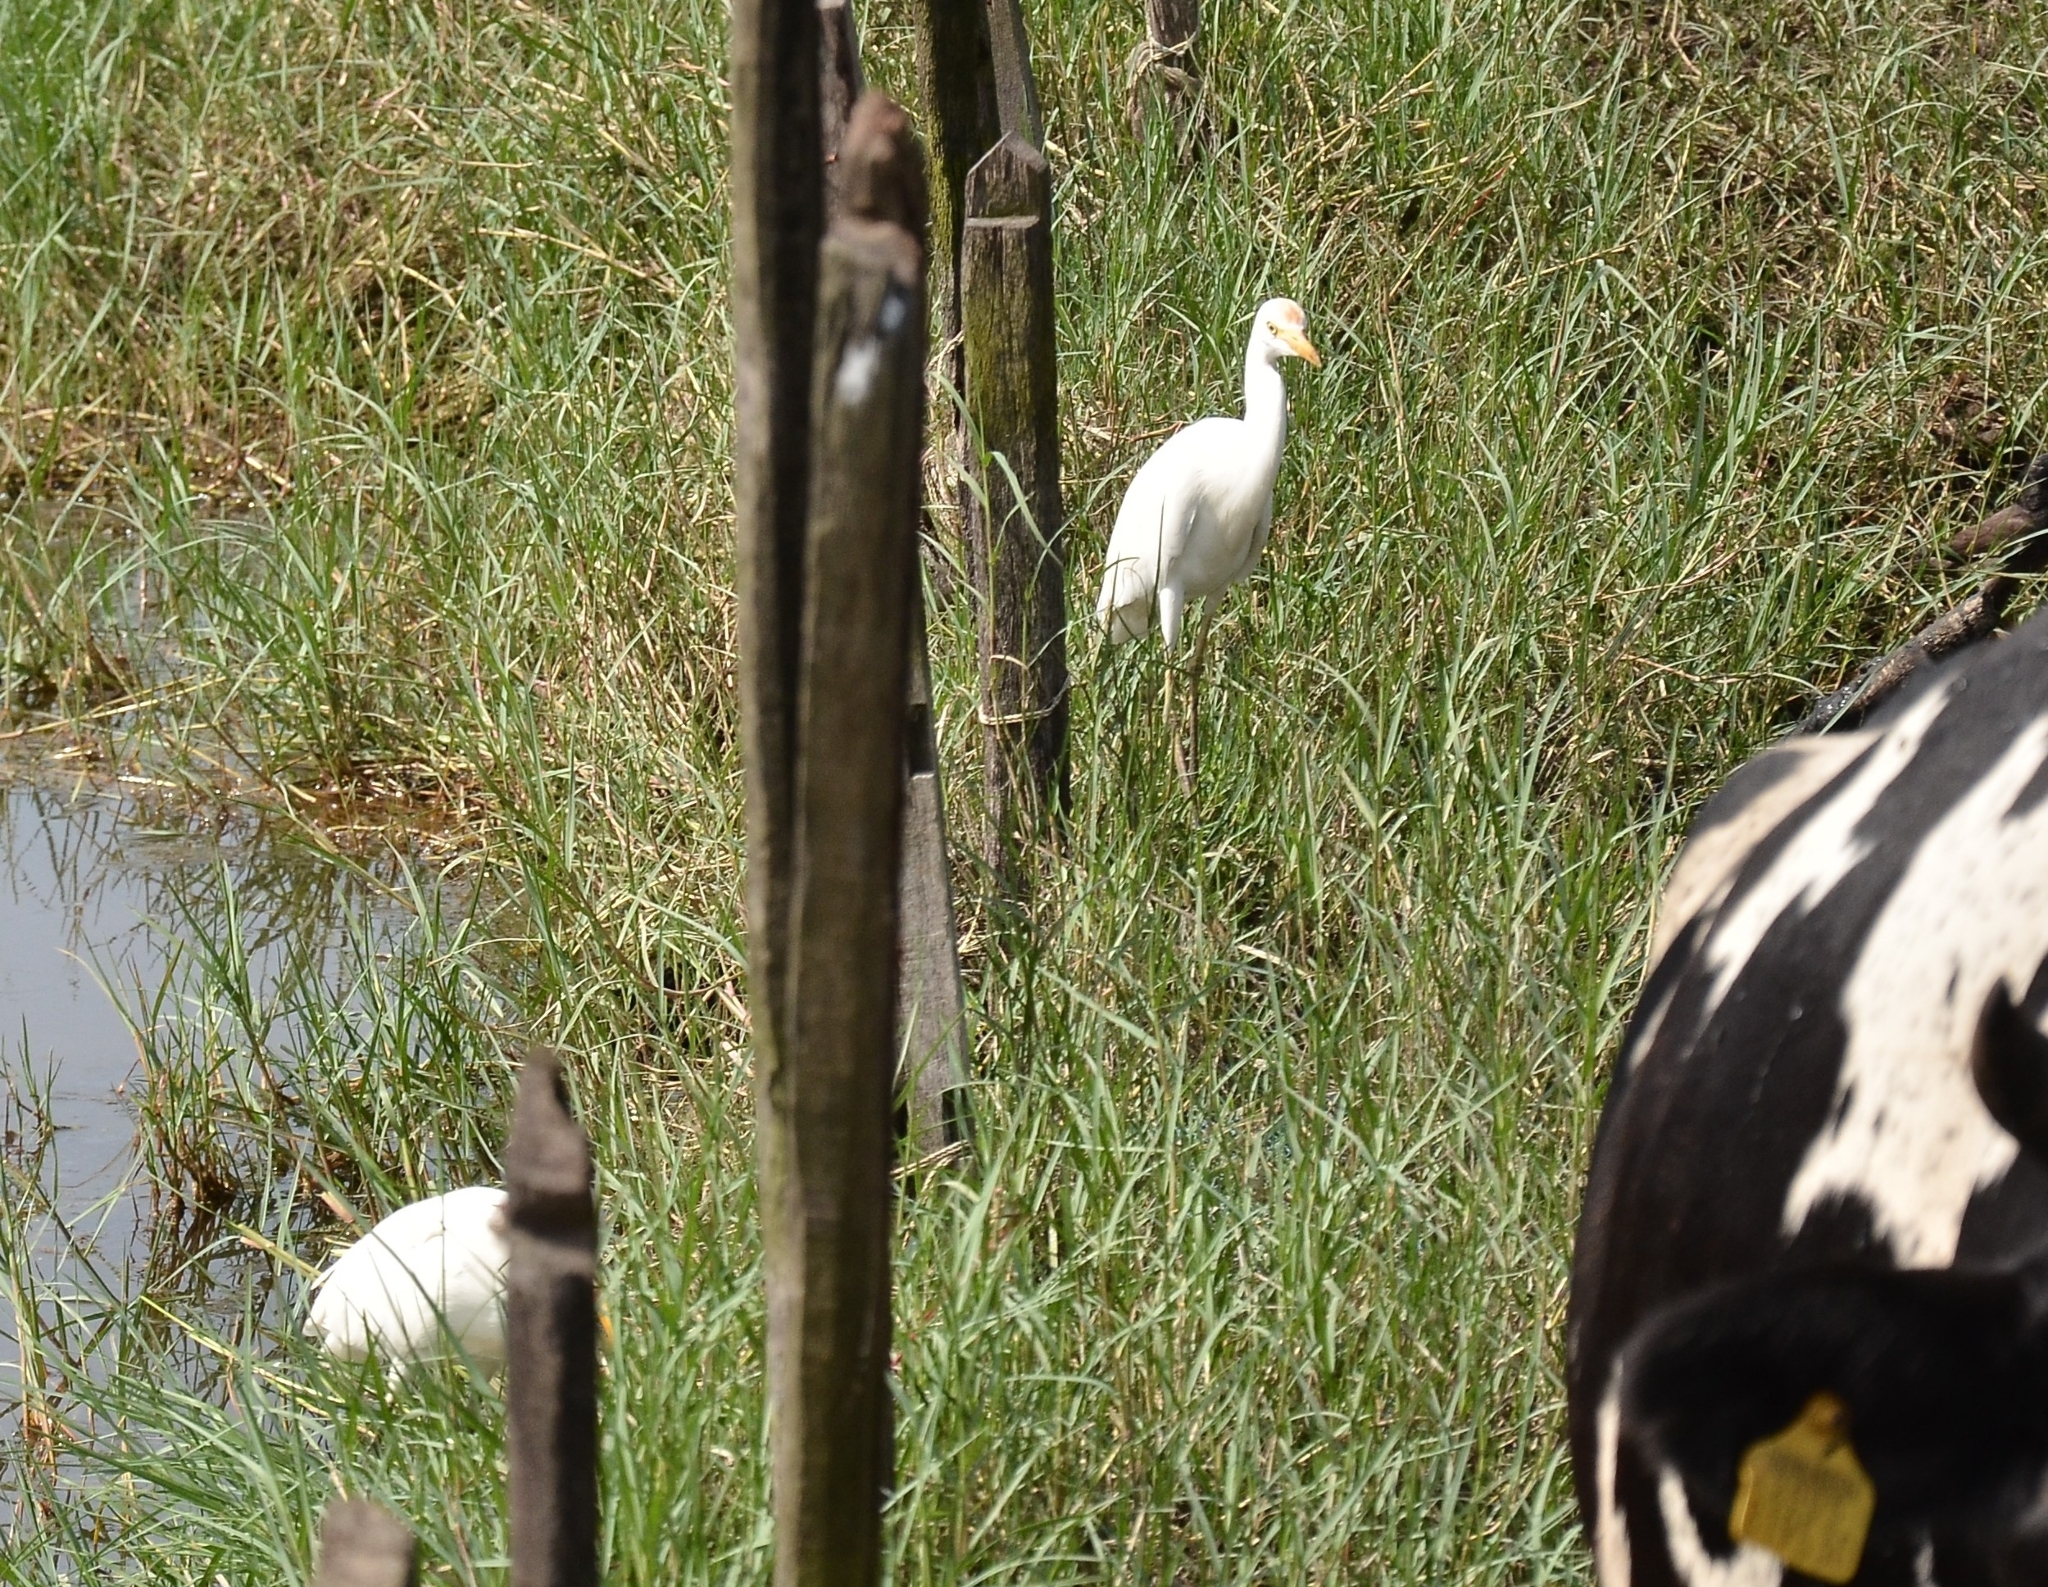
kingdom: Animalia
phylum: Chordata
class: Aves
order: Pelecaniformes
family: Ardeidae
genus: Bubulcus
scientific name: Bubulcus coromandus
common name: Eastern cattle egret
